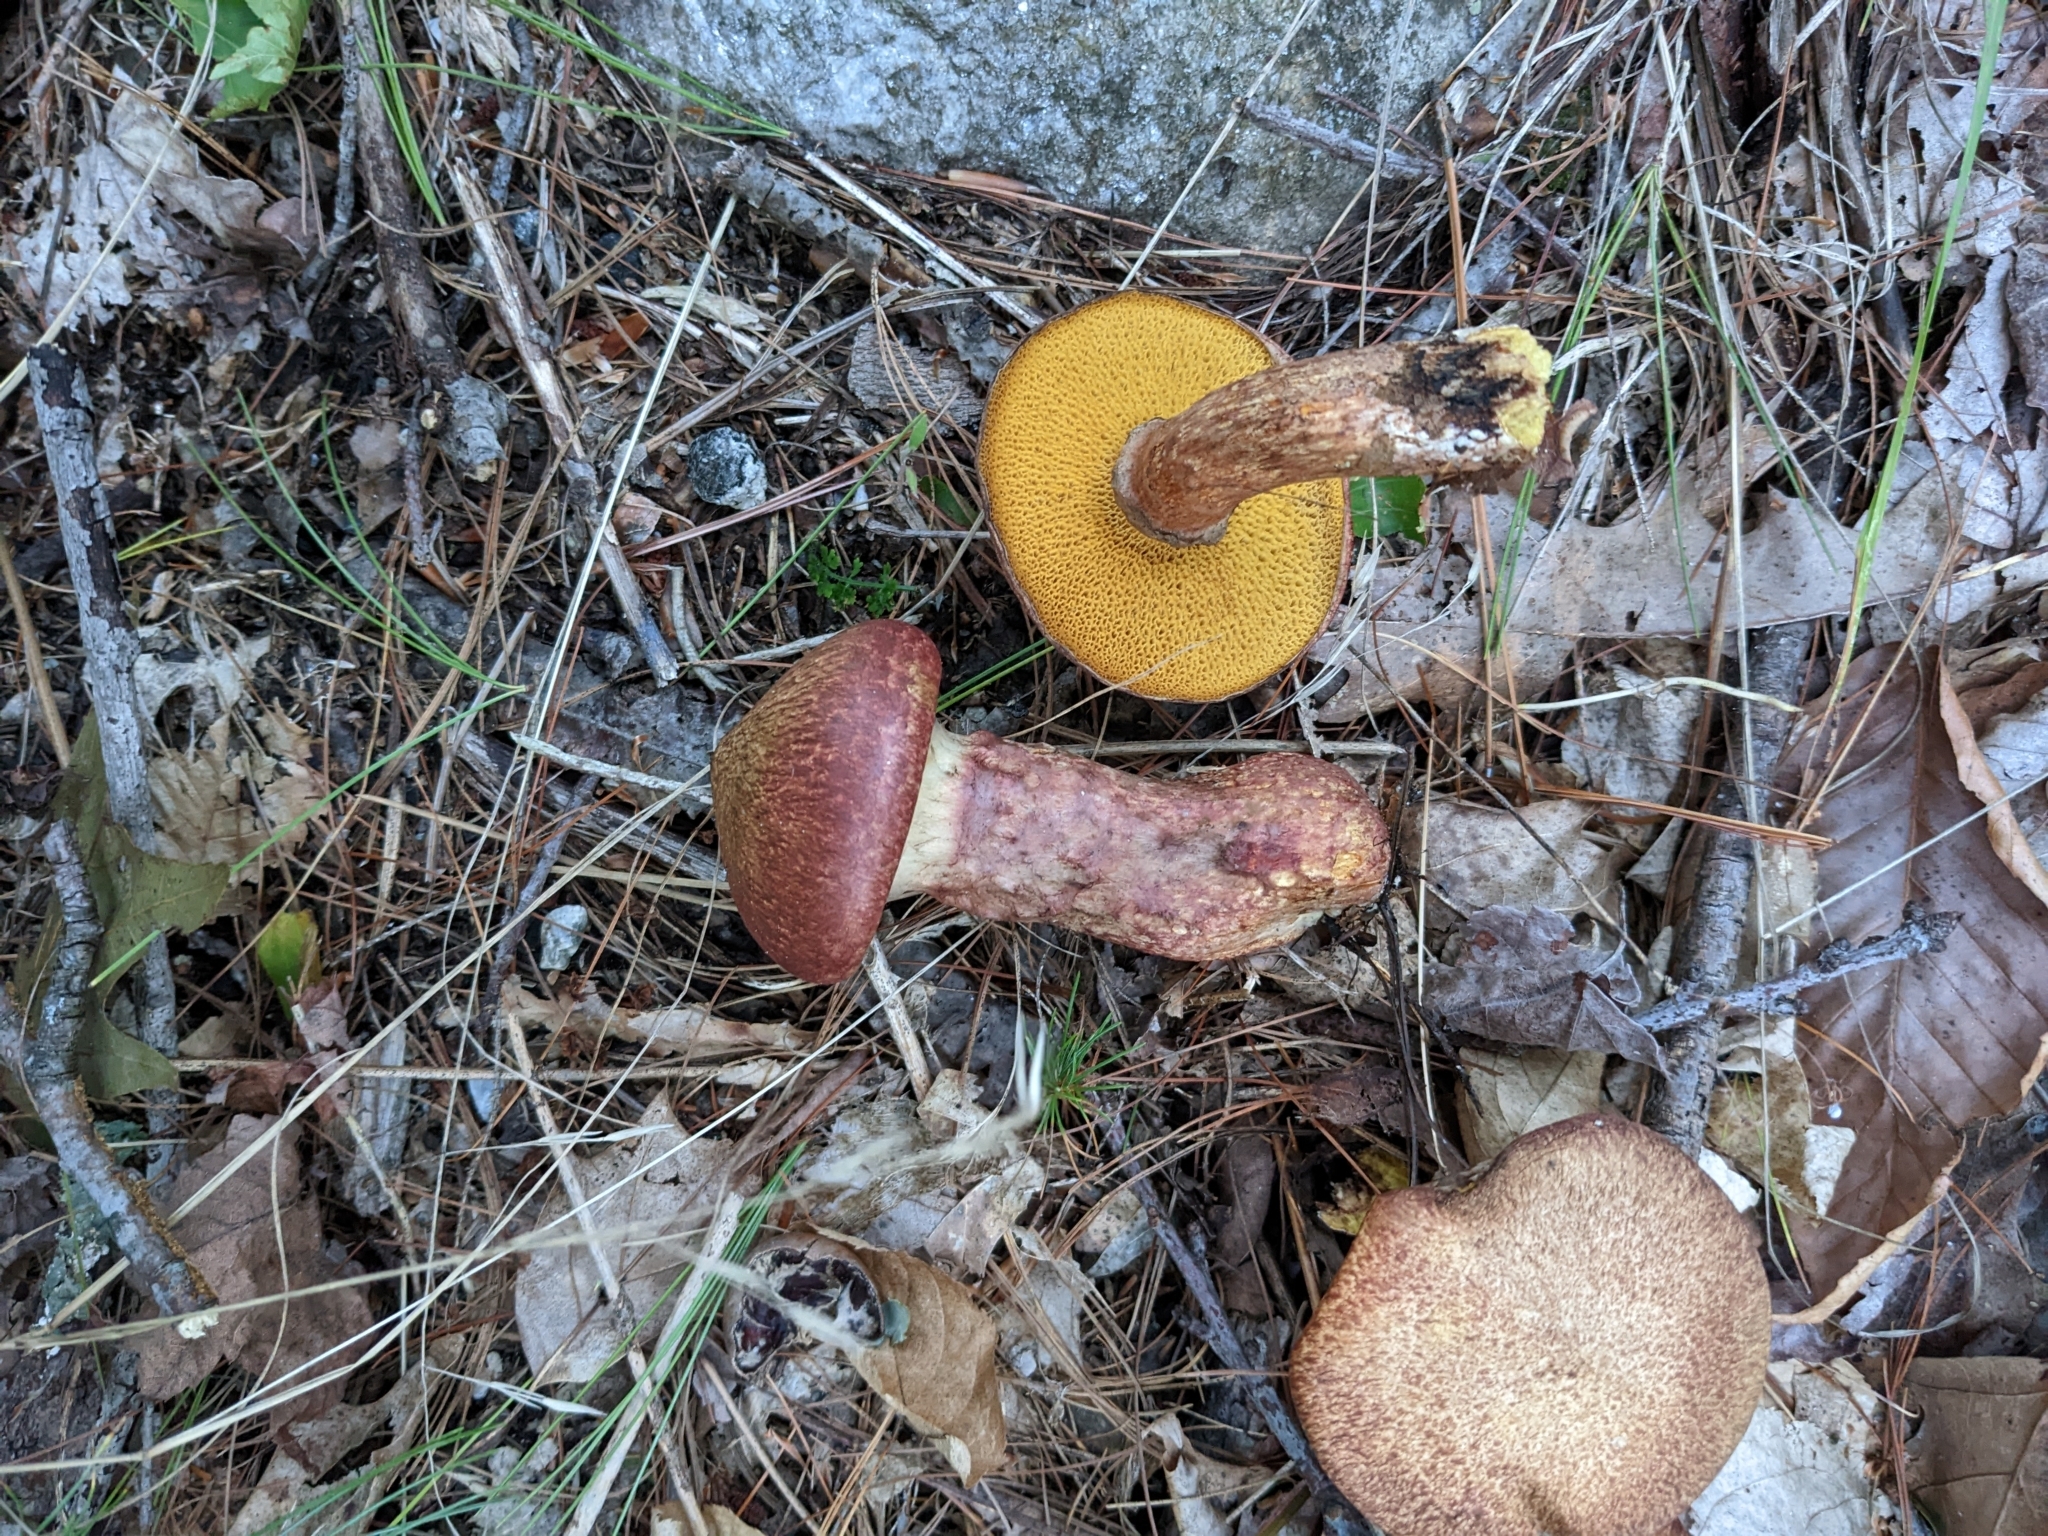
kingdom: Fungi
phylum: Basidiomycota
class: Agaricomycetes
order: Boletales
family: Suillaceae
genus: Suillus
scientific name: Suillus spraguei
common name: Painted suillus
